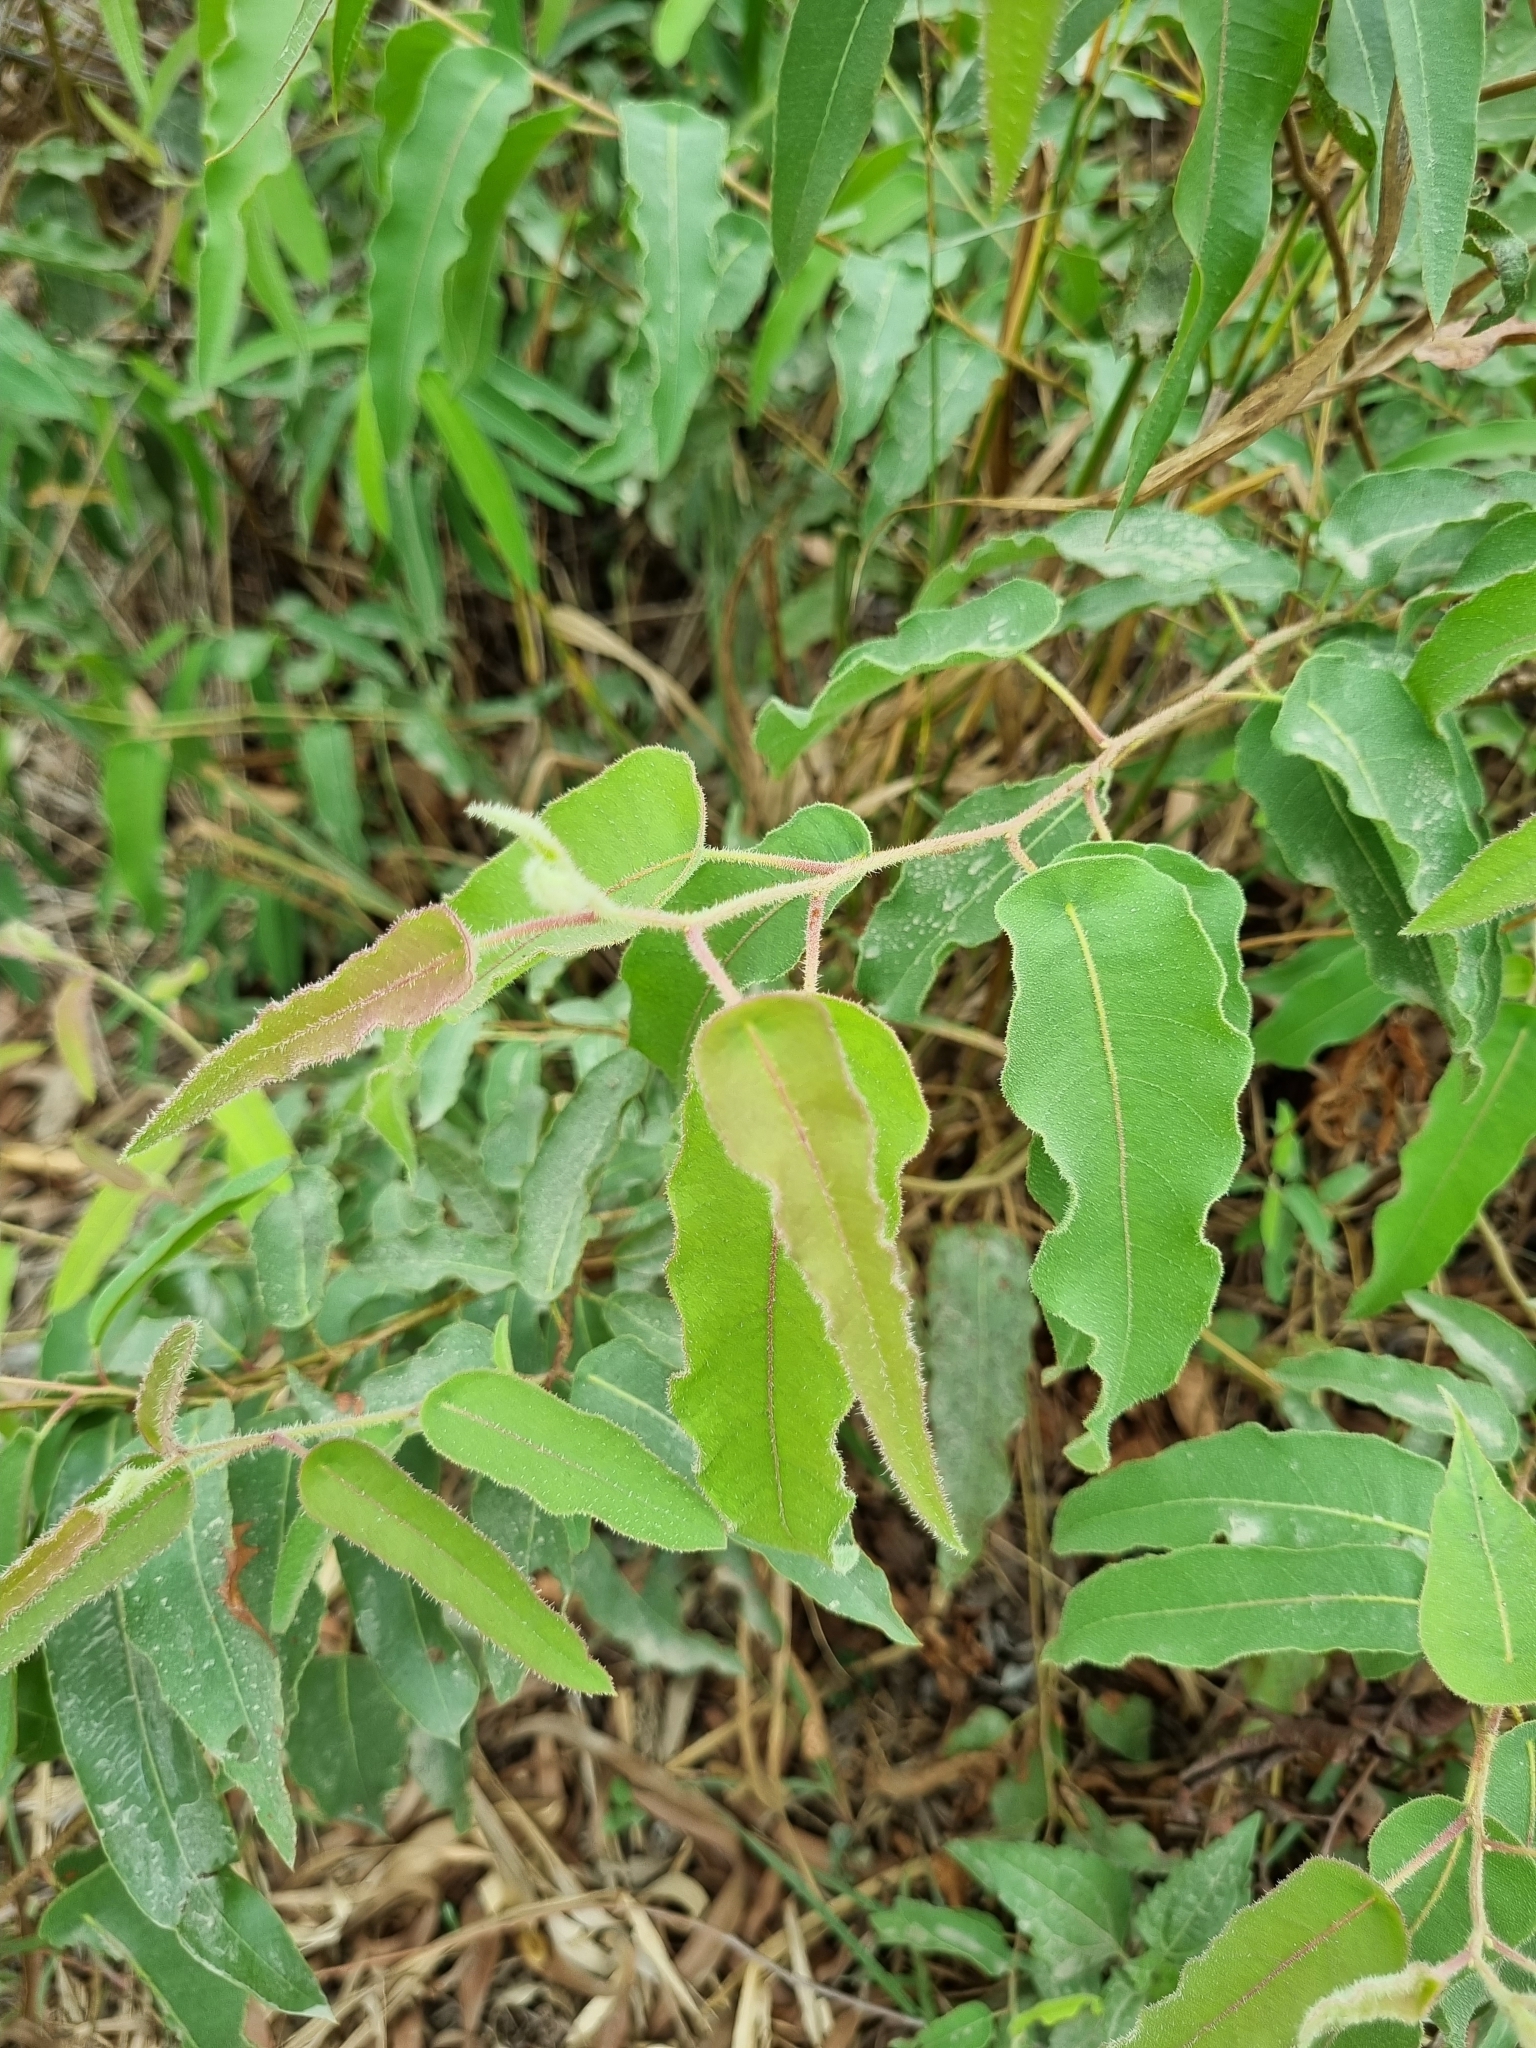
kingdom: Plantae
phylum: Tracheophyta
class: Magnoliopsida
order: Myrtales
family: Myrtaceae
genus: Corymbia
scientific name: Corymbia citriodora
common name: Lemonscented gum
